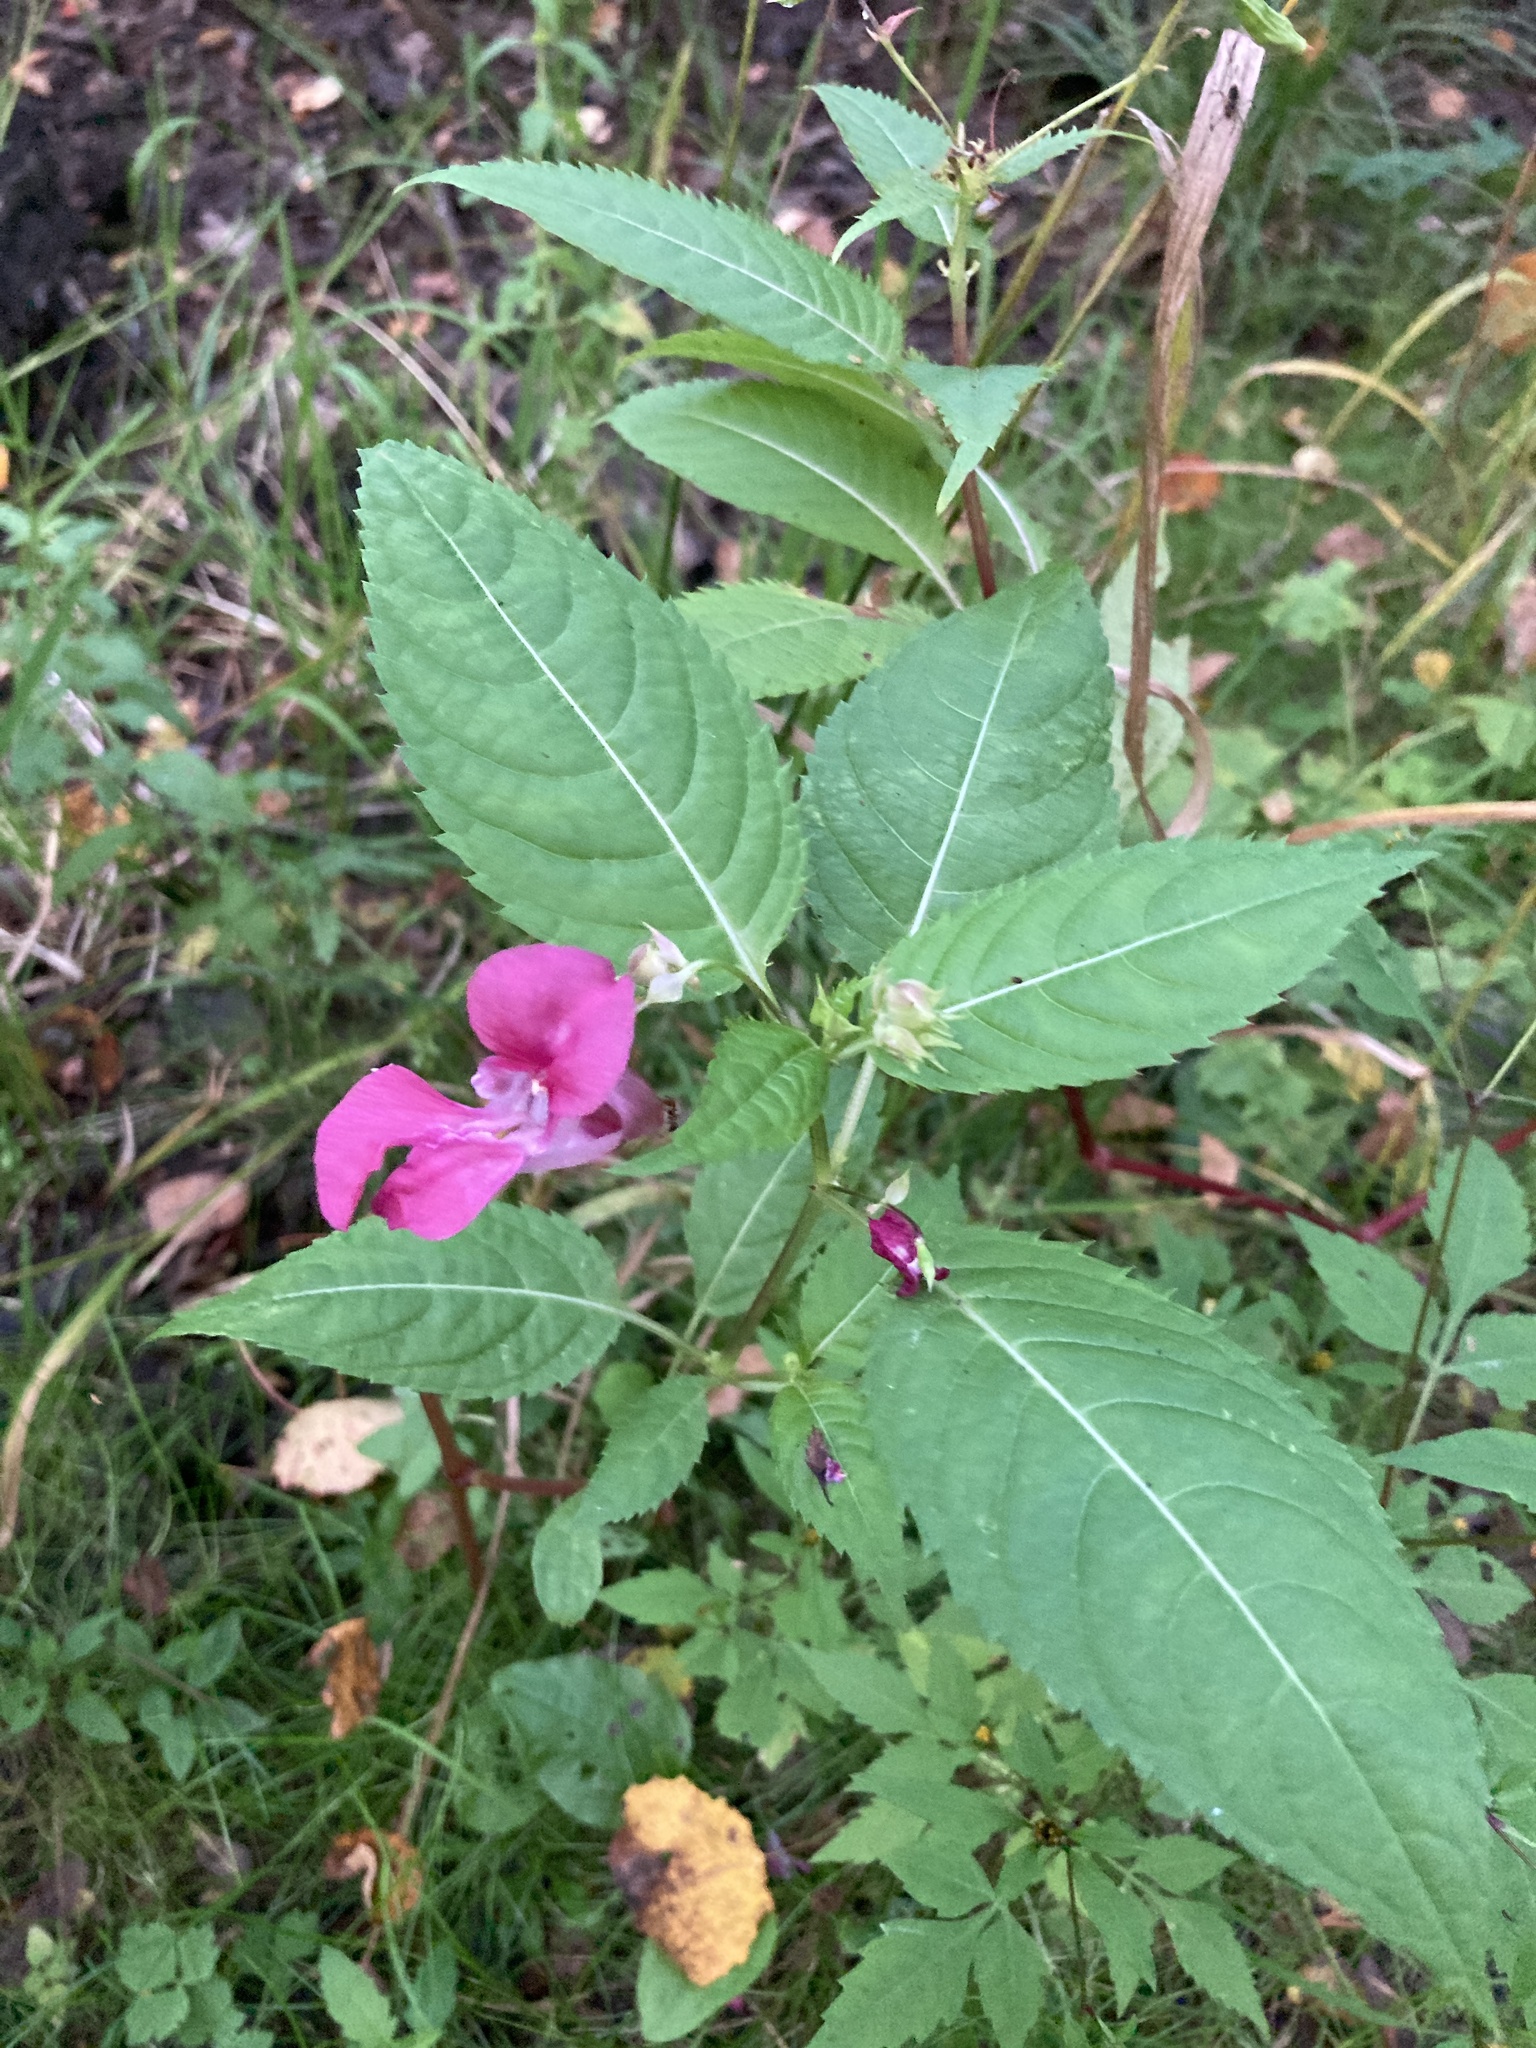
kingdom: Plantae
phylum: Tracheophyta
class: Magnoliopsida
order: Ericales
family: Balsaminaceae
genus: Impatiens
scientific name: Impatiens glandulifera
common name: Himalayan balsam
